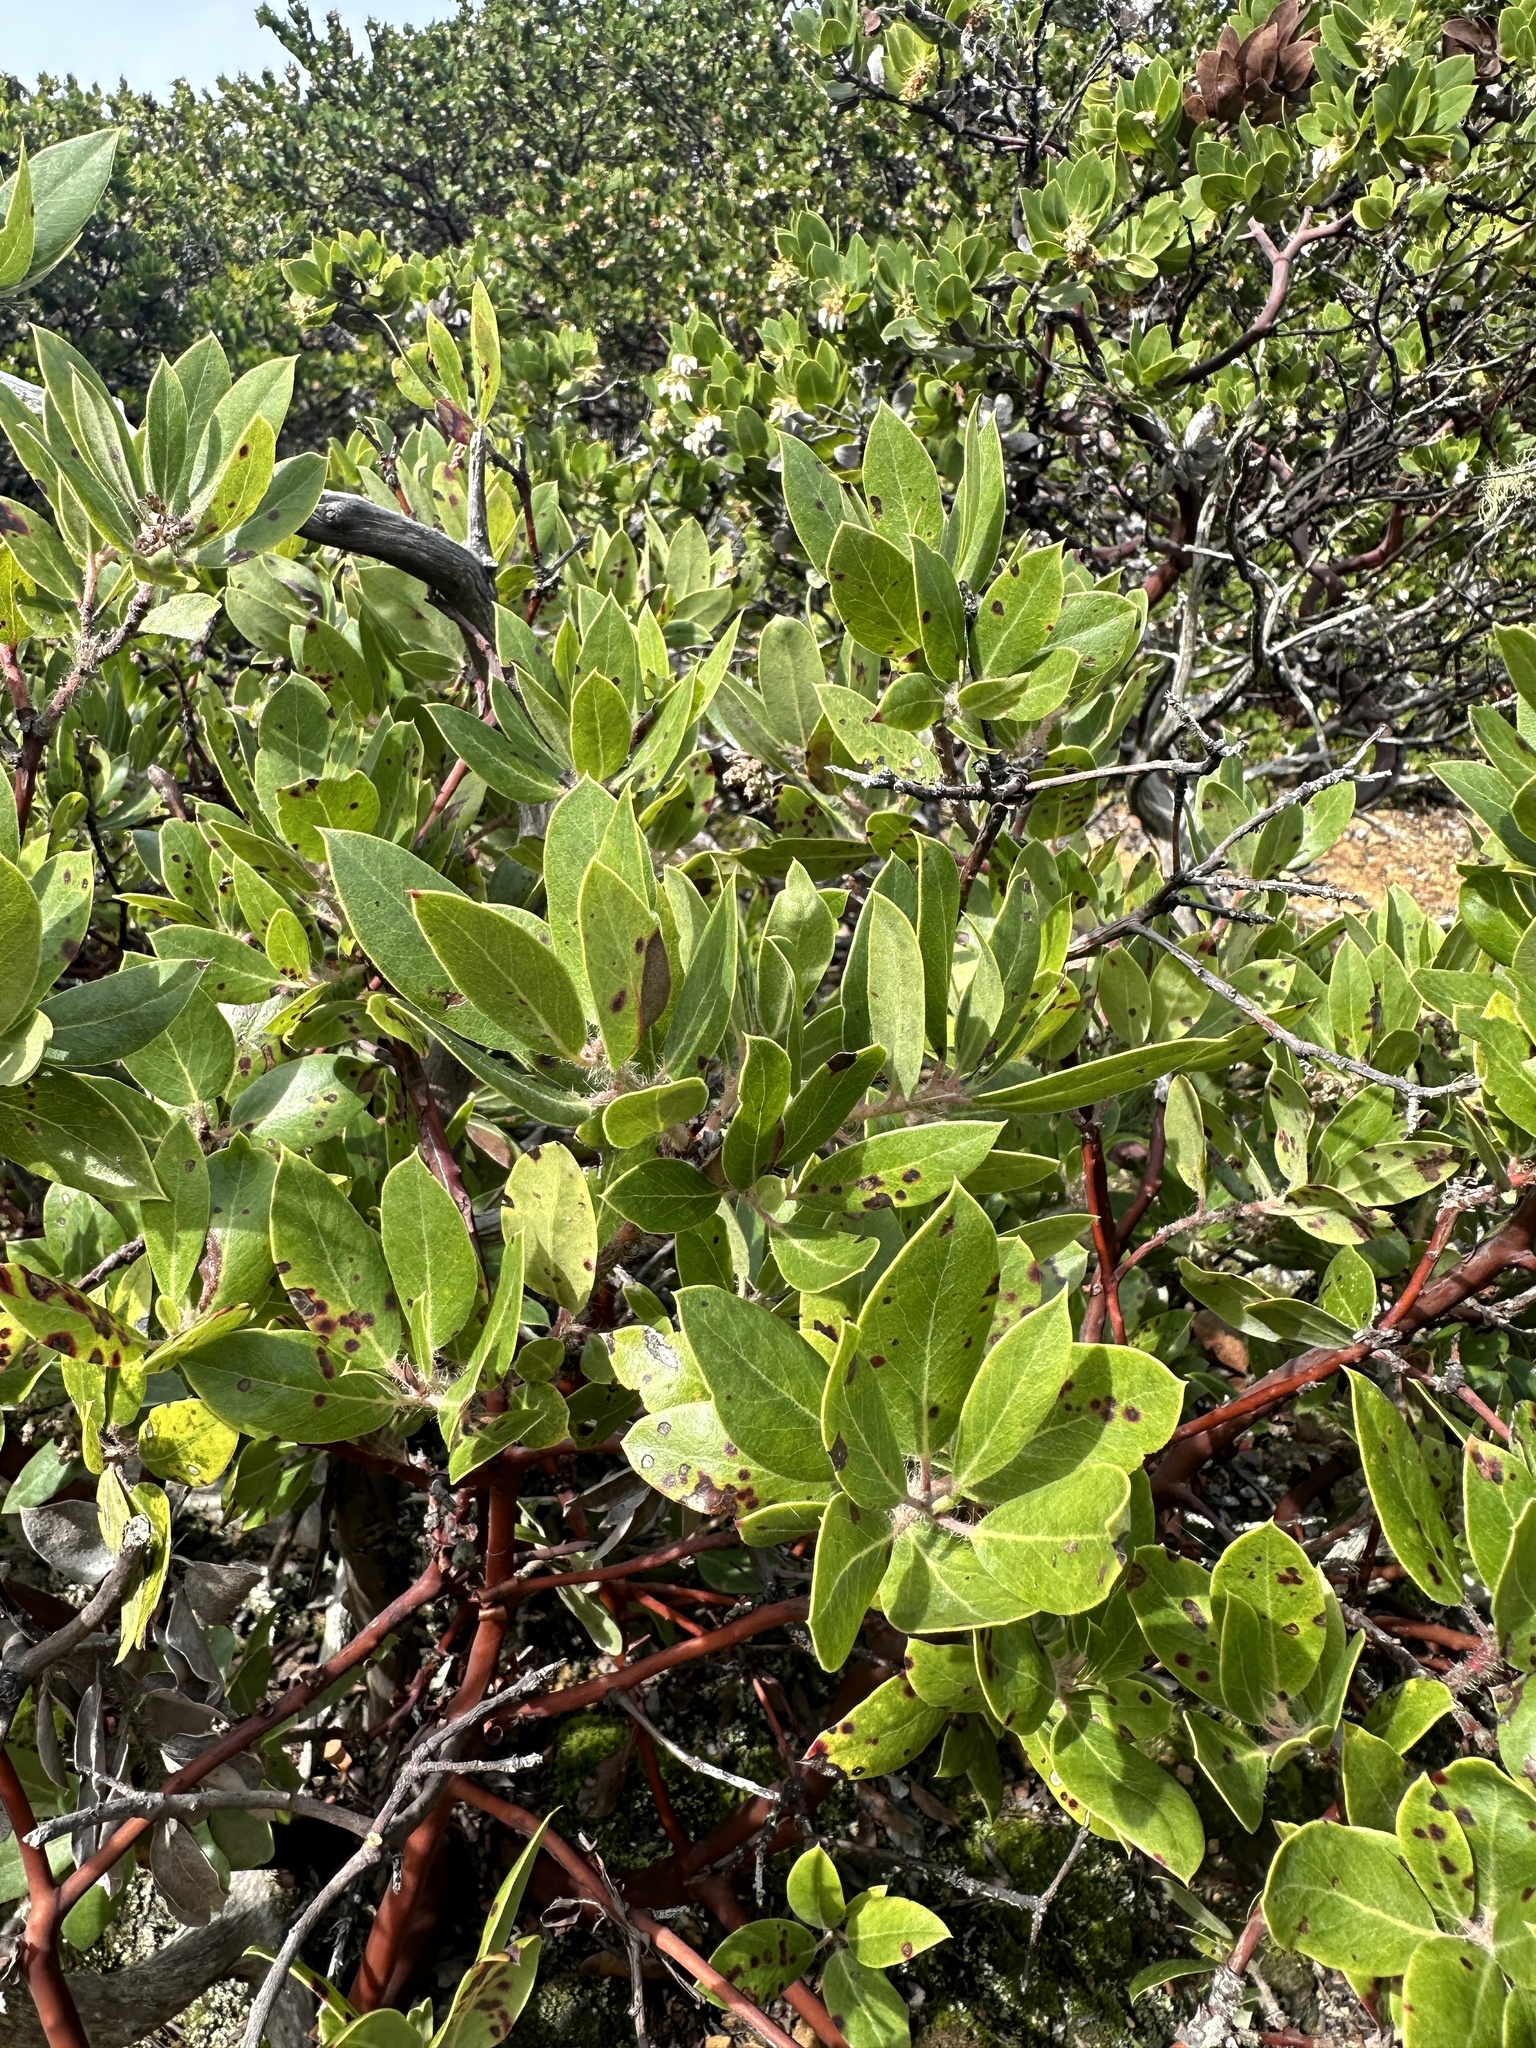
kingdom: Plantae
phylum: Tracheophyta
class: Magnoliopsida
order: Ericales
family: Ericaceae
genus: Arctostaphylos
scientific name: Arctostaphylos crustacea
